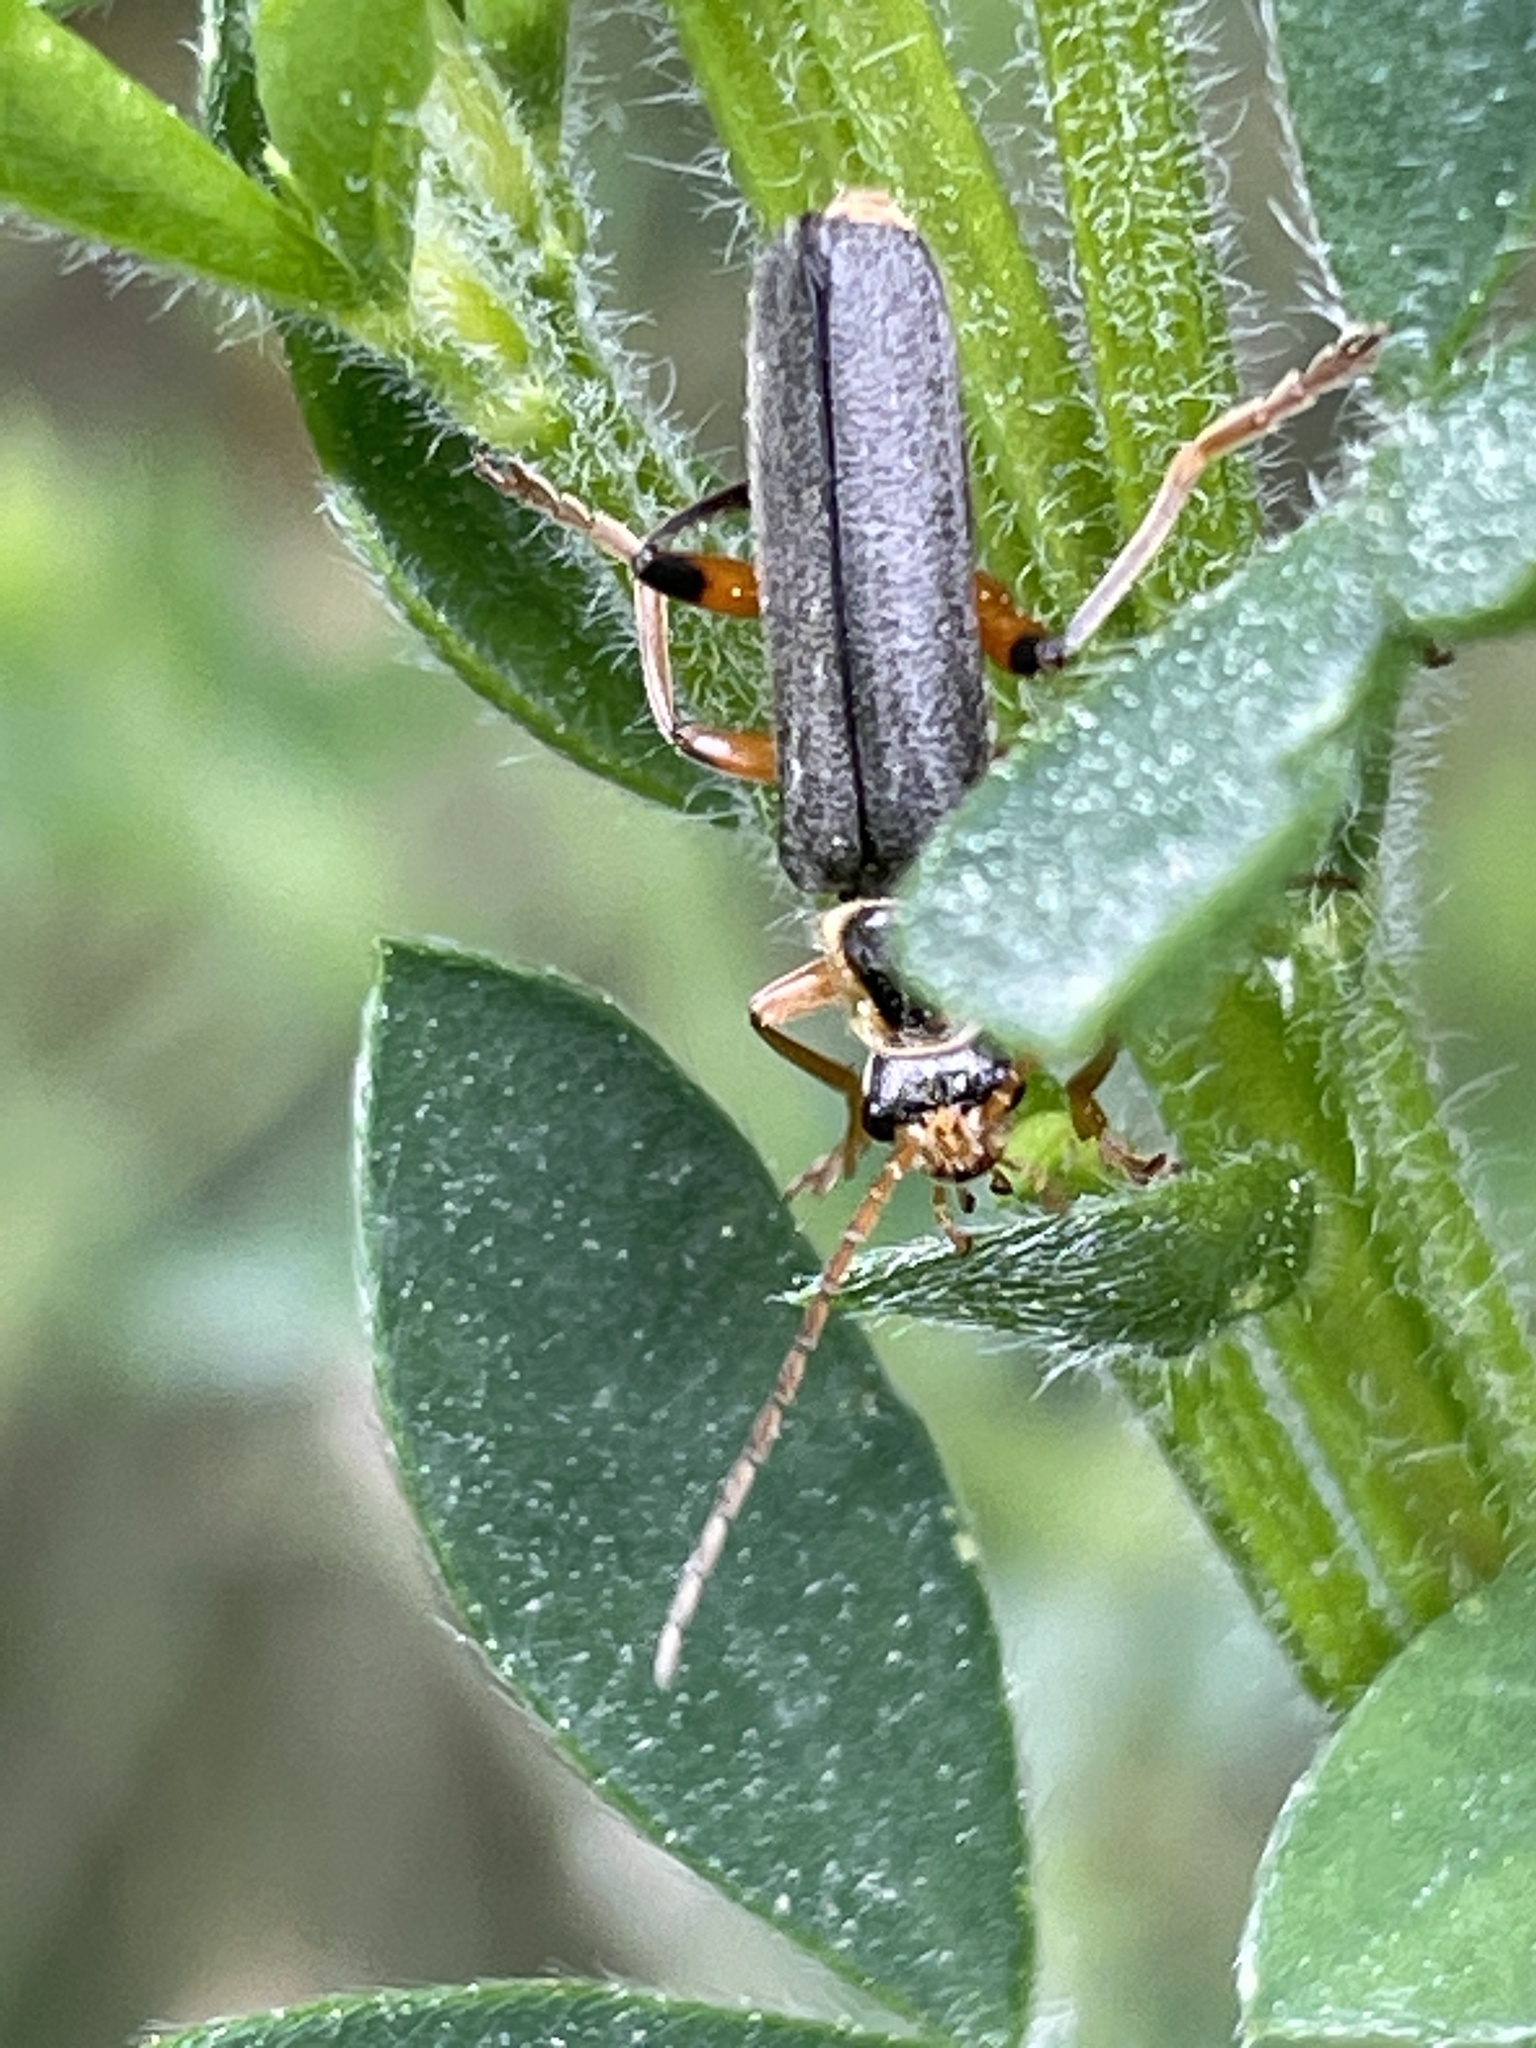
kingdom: Animalia
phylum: Arthropoda
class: Insecta
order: Coleoptera
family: Cantharidae
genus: Cantharis
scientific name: Cantharis nigricans
